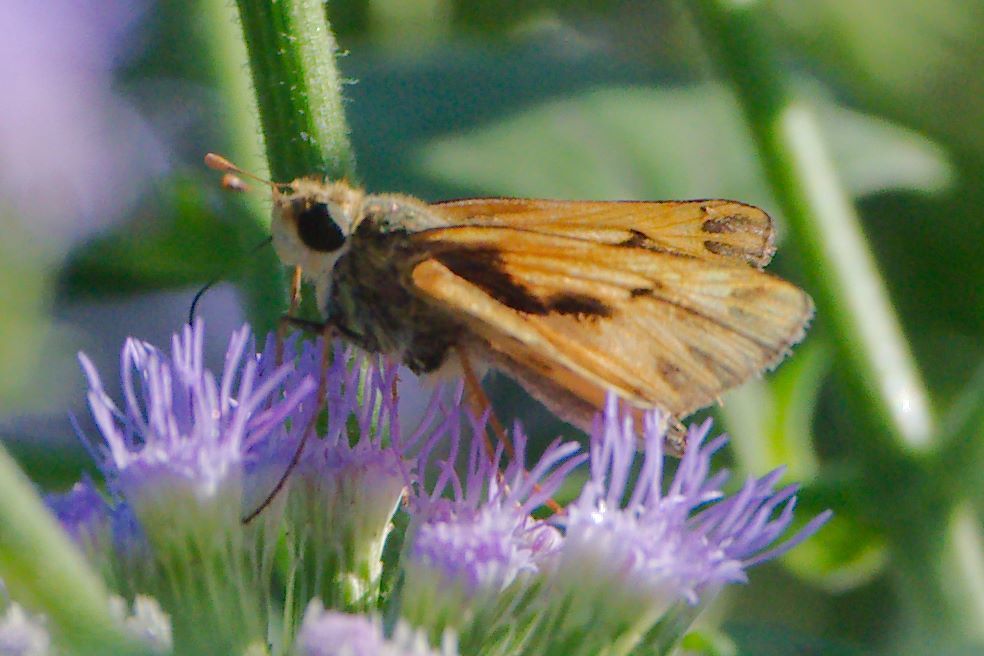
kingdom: Animalia
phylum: Arthropoda
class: Insecta
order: Lepidoptera
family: Hesperiidae
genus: Hylephila
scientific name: Hylephila phyleus
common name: Fiery skipper
